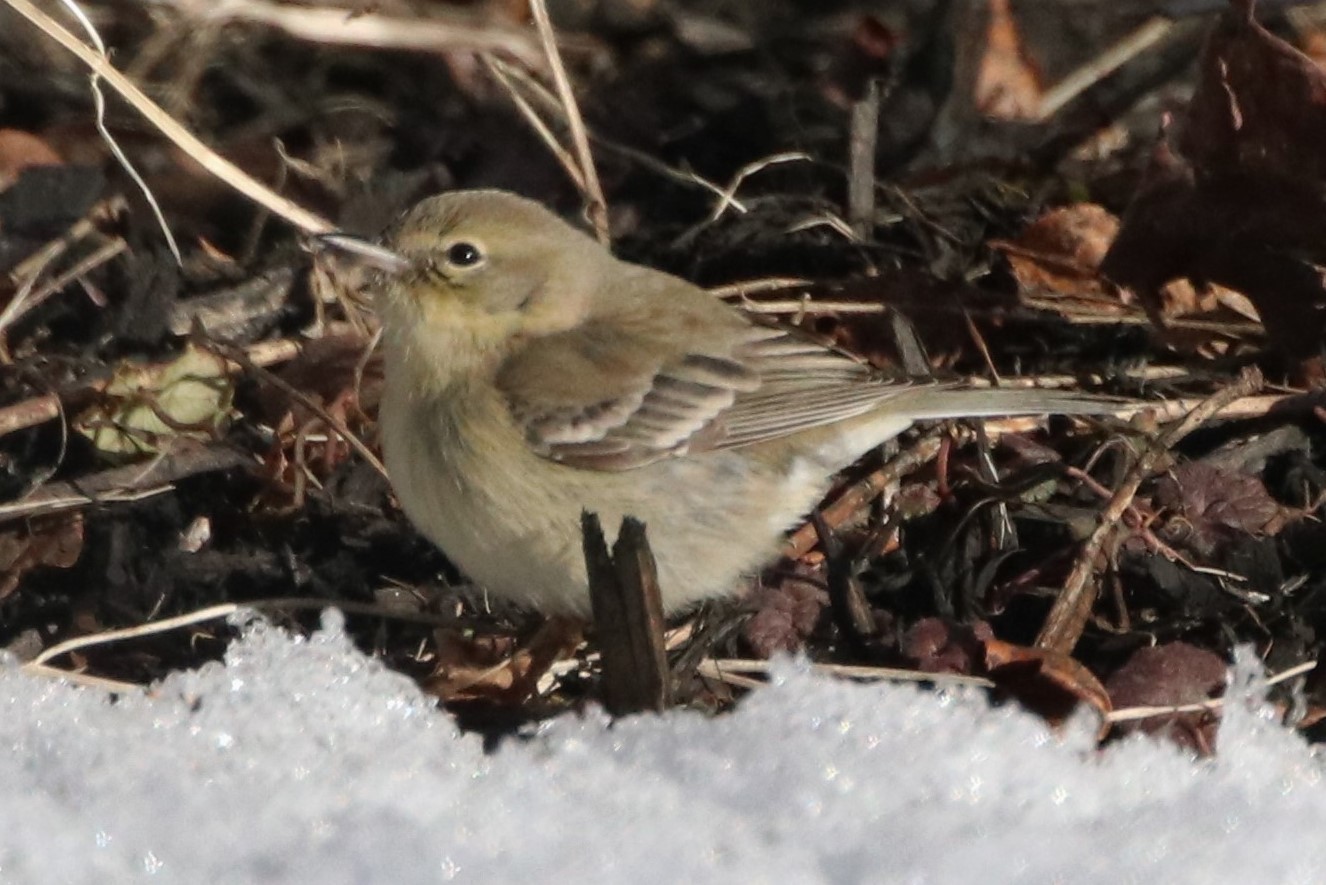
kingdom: Animalia
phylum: Chordata
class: Aves
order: Passeriformes
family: Parulidae
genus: Setophaga
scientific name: Setophaga pinus
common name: Pine warbler
